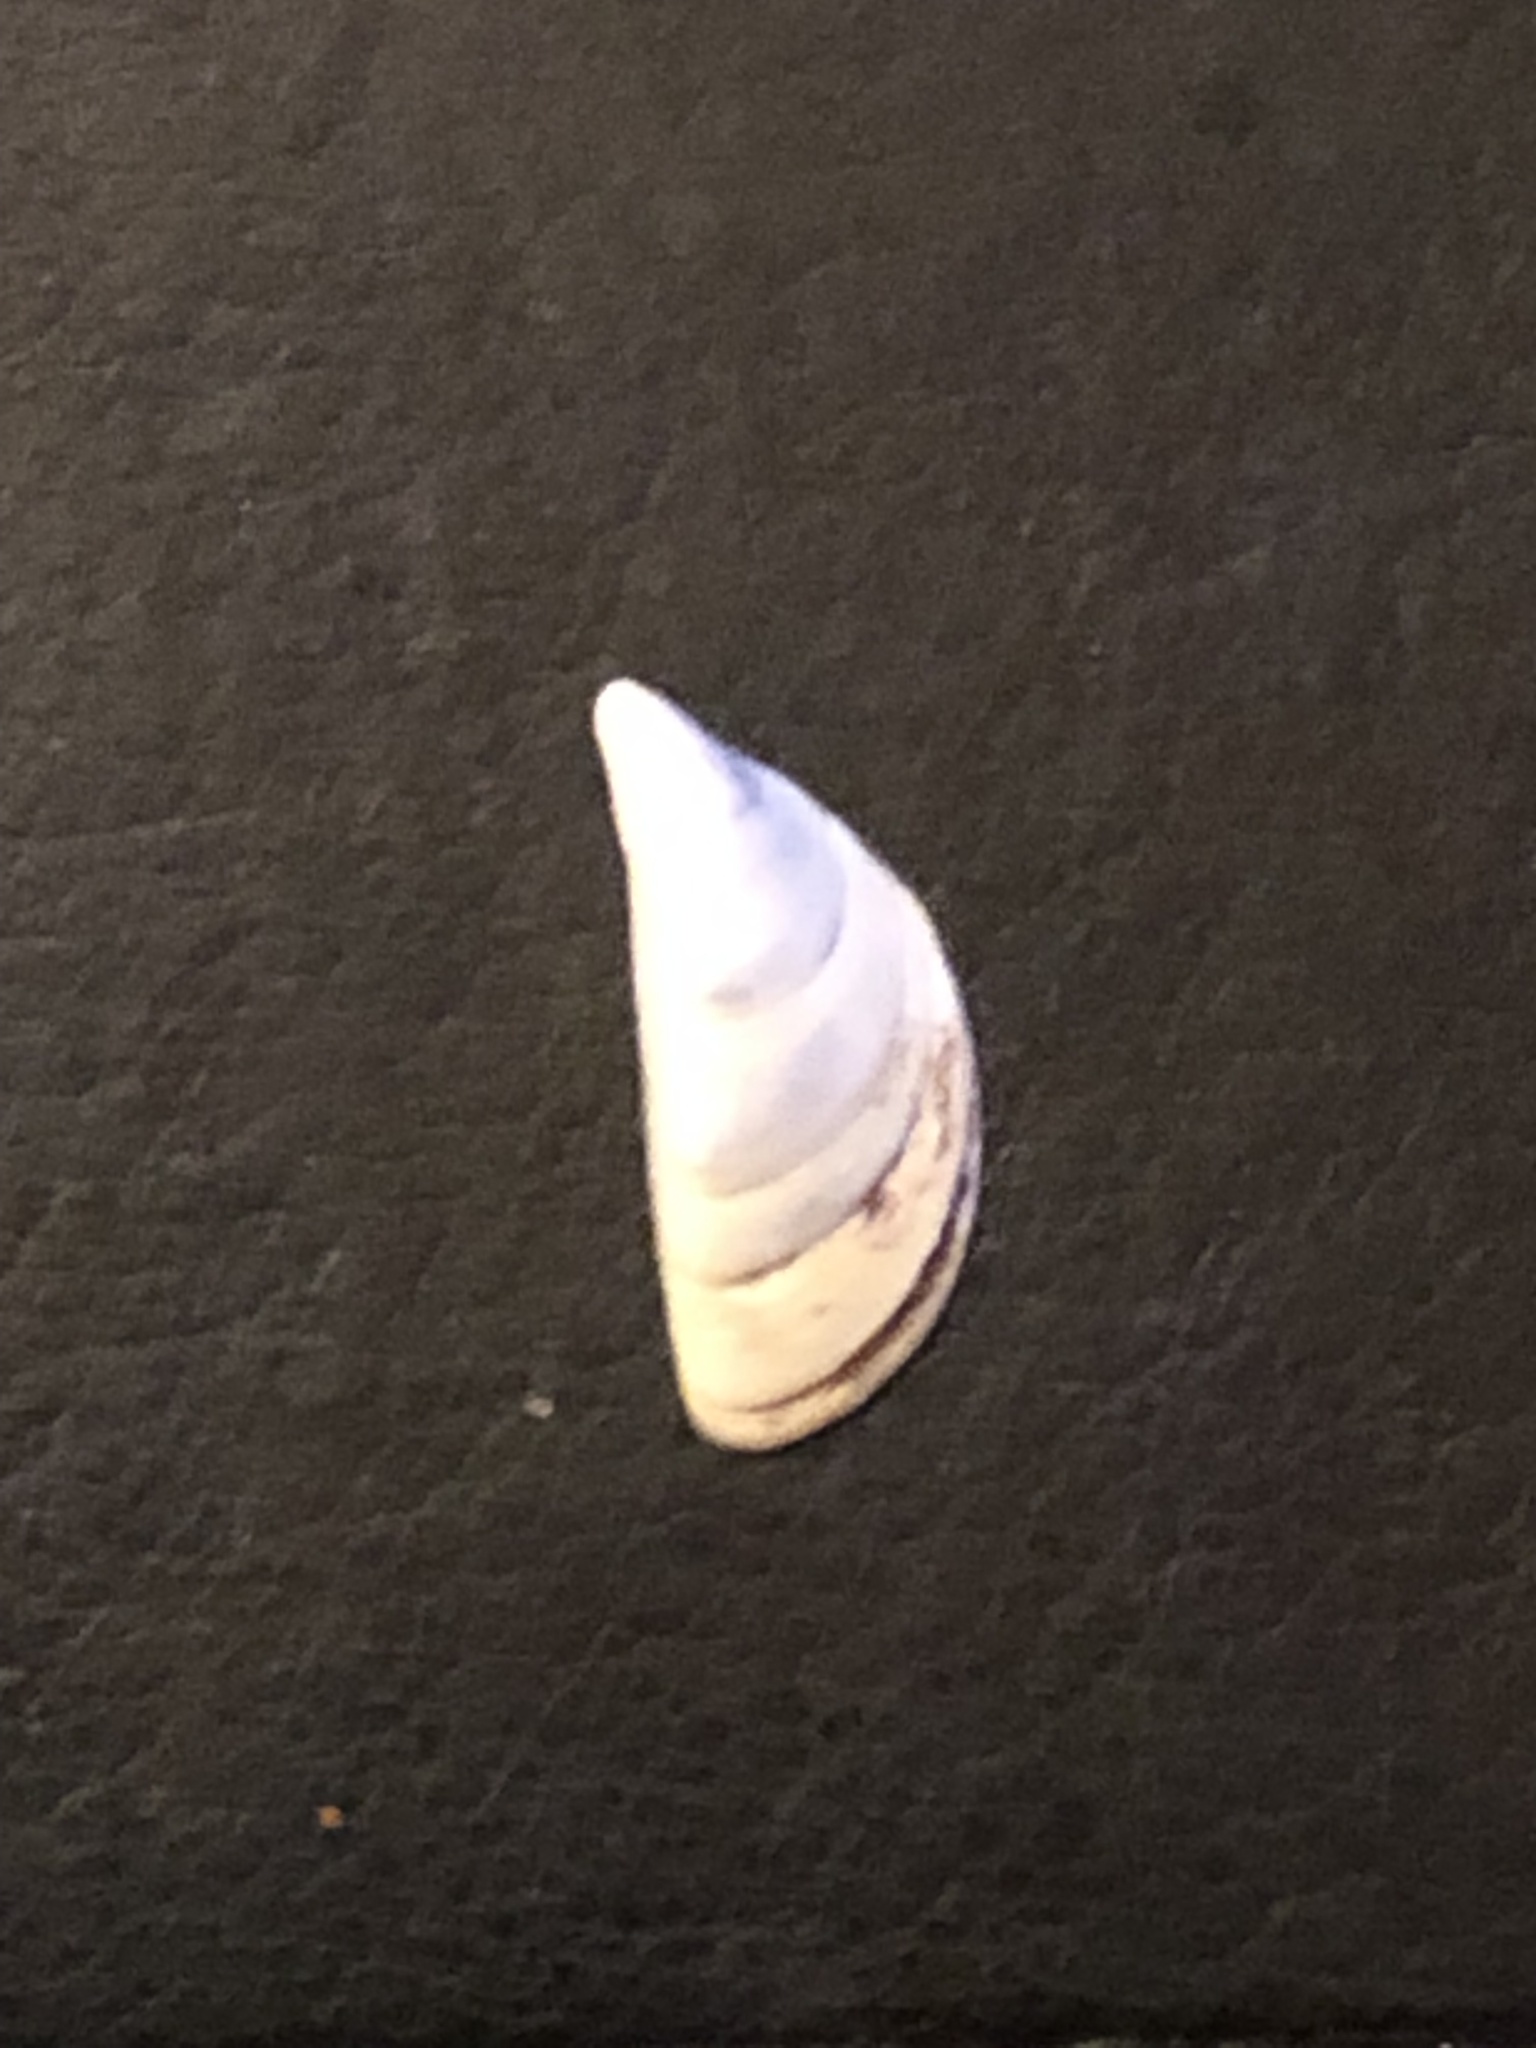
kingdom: Animalia
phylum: Mollusca
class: Bivalvia
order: Myida
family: Dreissenidae
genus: Dreissena
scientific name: Dreissena polymorpha
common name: Zebra mussel
